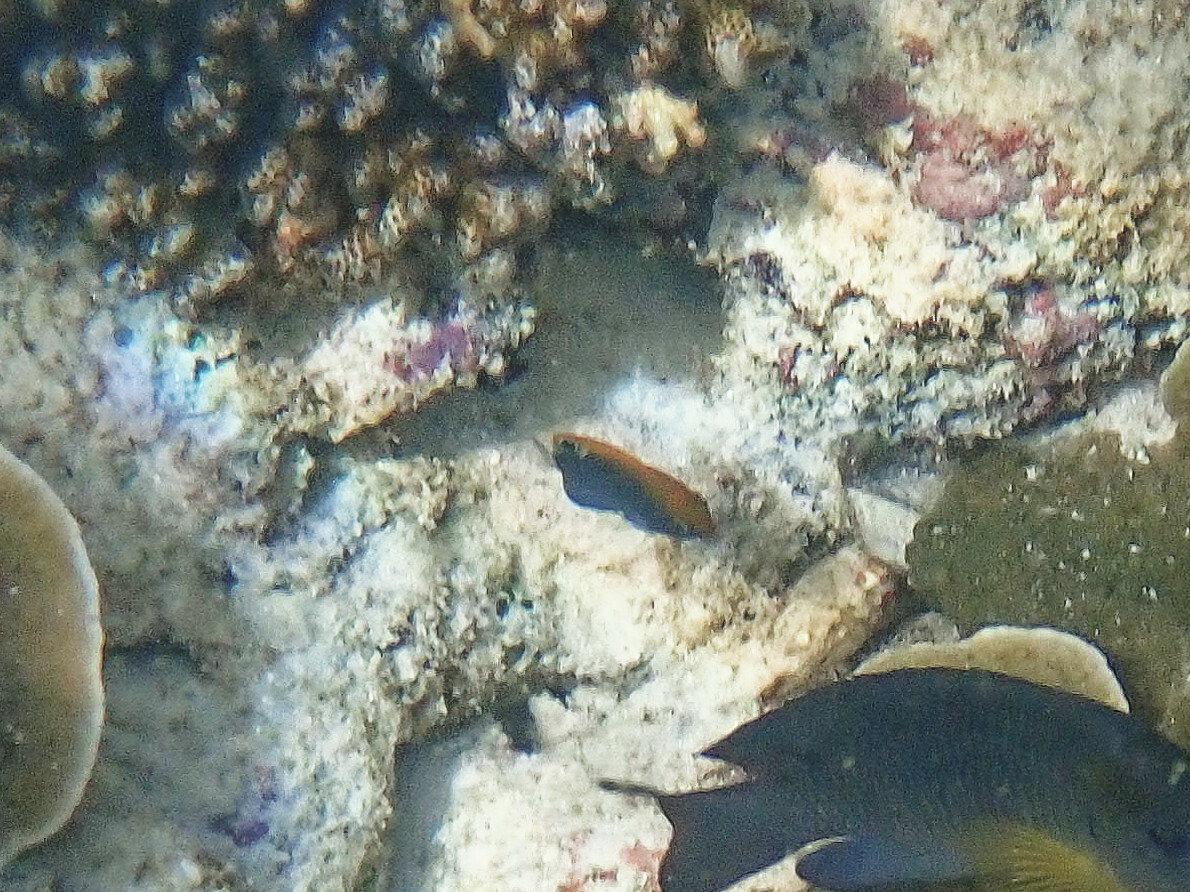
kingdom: Animalia
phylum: Chordata
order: Perciformes
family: Pomacentridae
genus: Pomacentrus
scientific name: Pomacentrus chrysurus
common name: White-tail damsel
